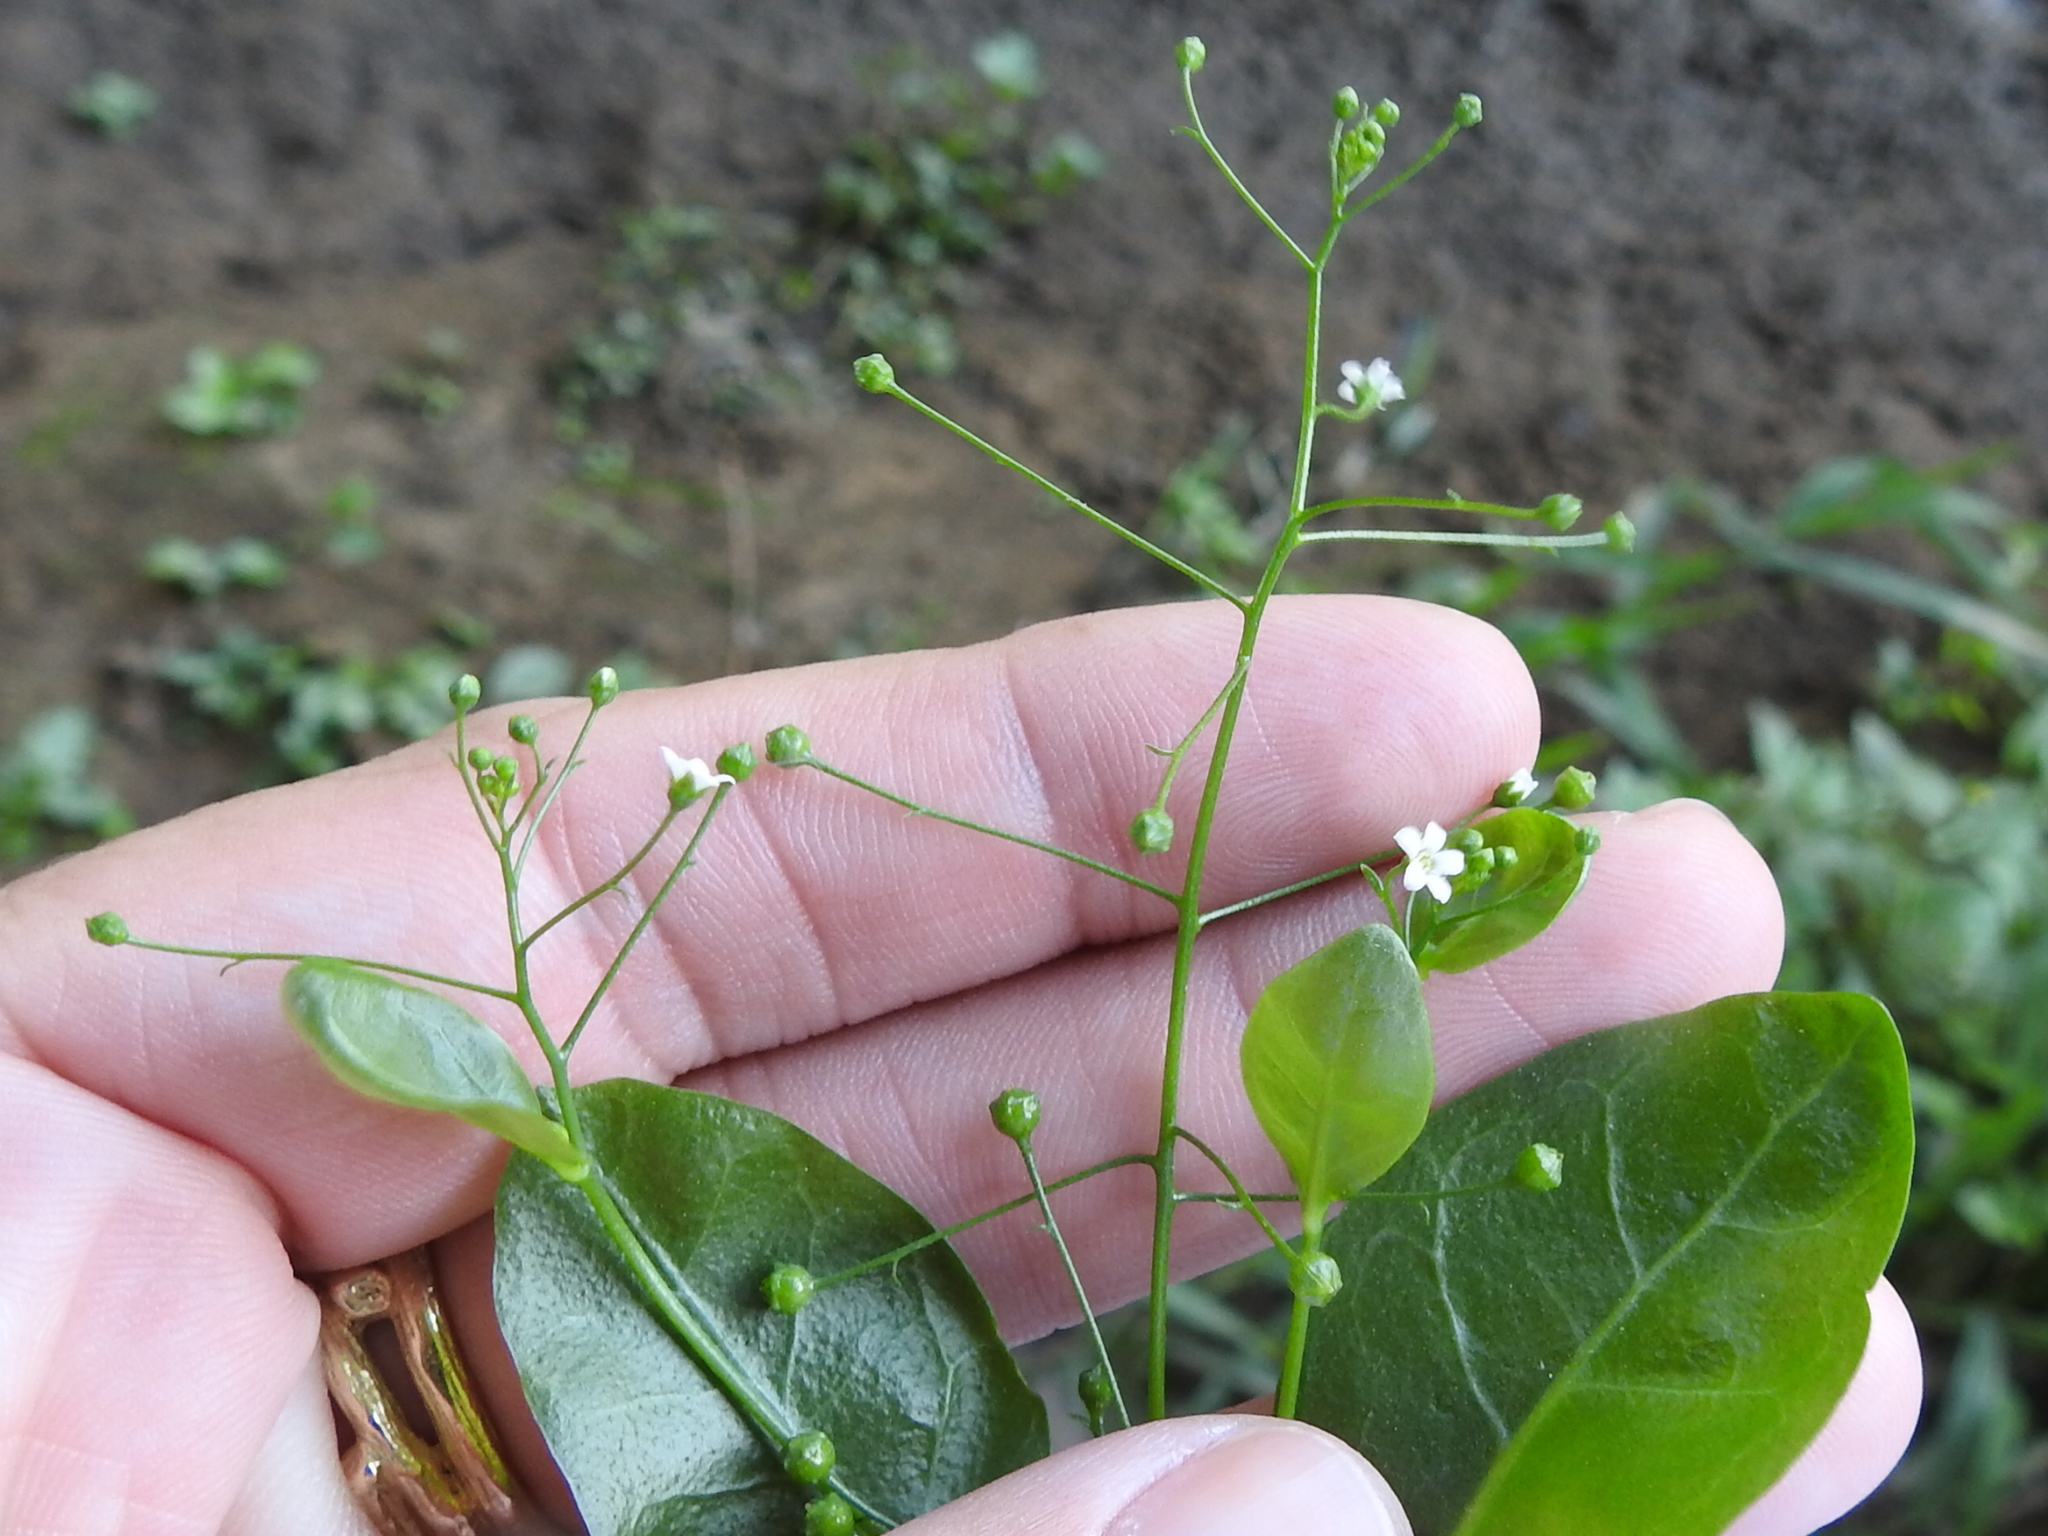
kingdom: Plantae
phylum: Tracheophyta
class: Magnoliopsida
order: Ericales
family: Primulaceae
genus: Samolus
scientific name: Samolus parviflorus
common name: False water pimpernel
